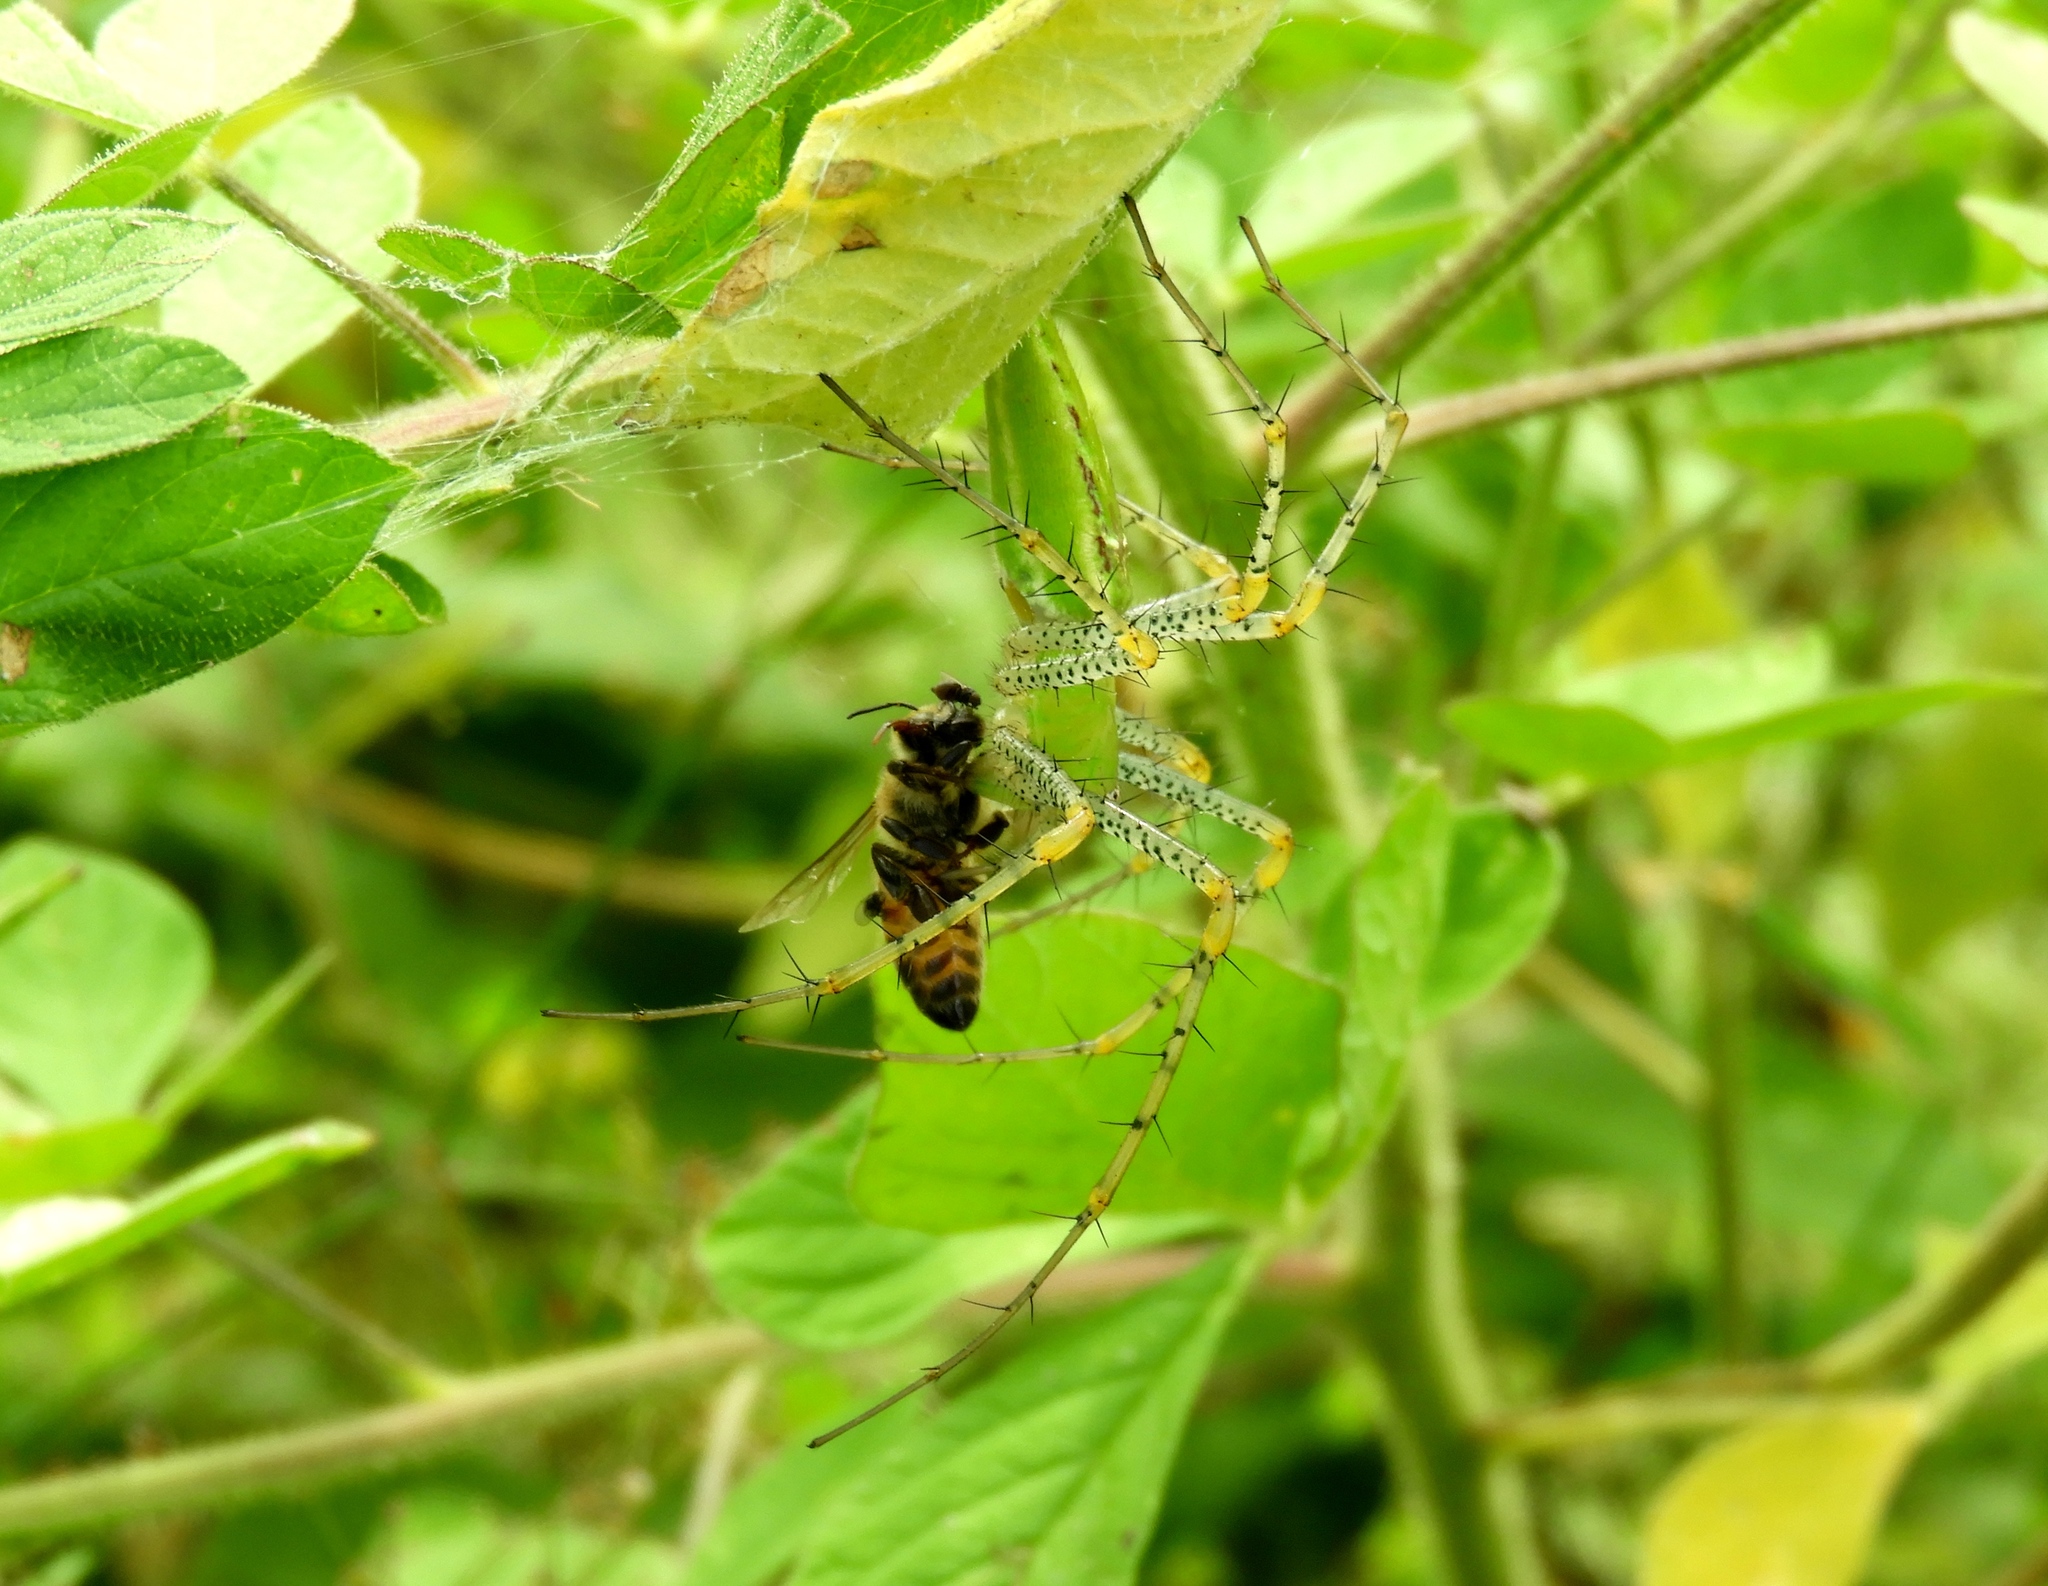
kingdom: Animalia
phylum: Arthropoda
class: Arachnida
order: Araneae
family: Oxyopidae
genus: Peucetia
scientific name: Peucetia
